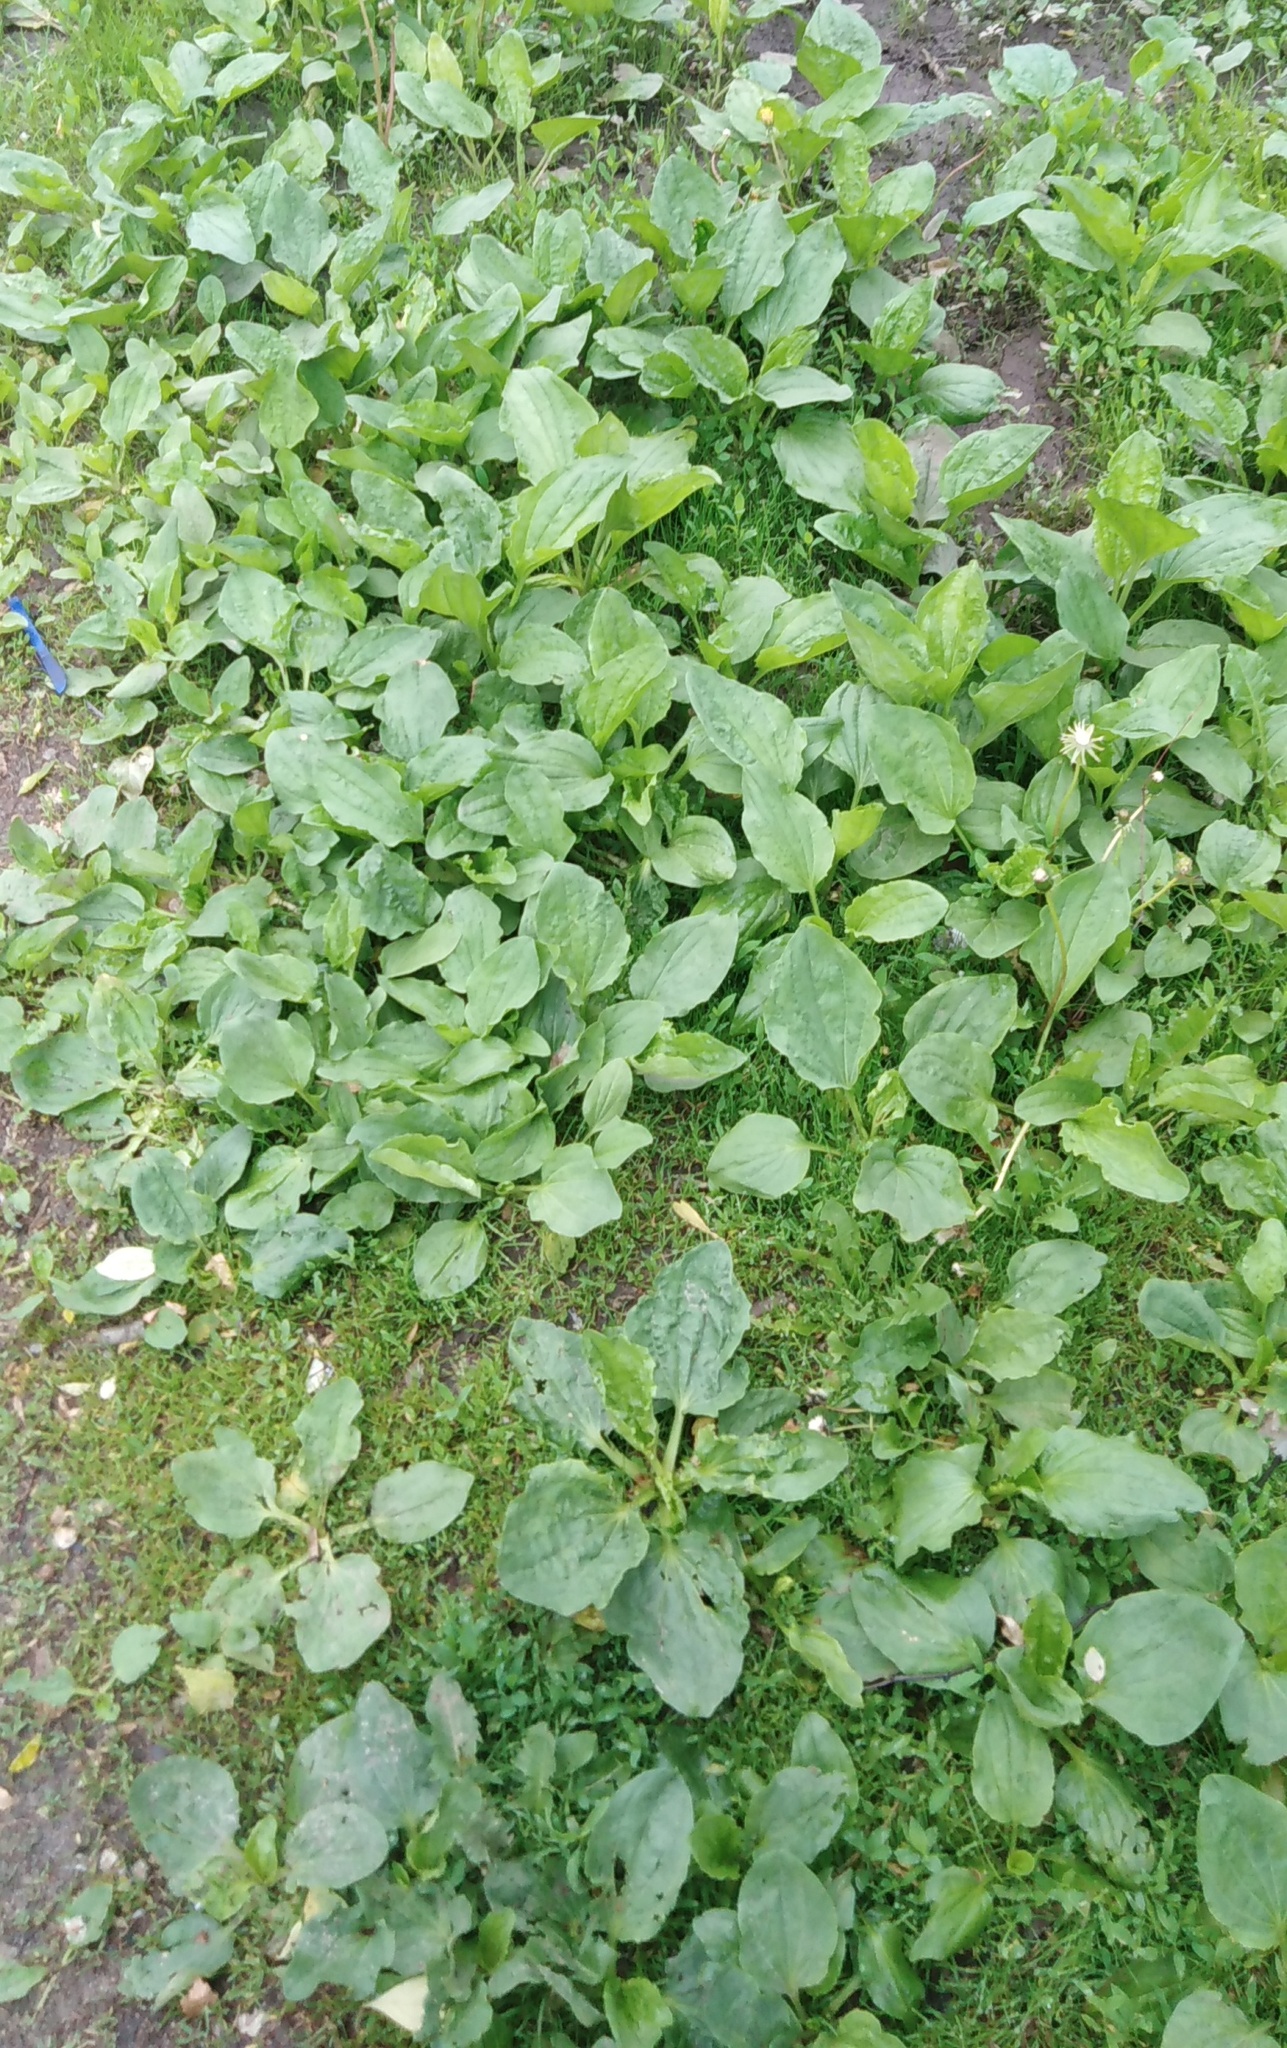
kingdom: Plantae
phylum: Tracheophyta
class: Magnoliopsida
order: Lamiales
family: Plantaginaceae
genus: Plantago
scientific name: Plantago major
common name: Common plantain
